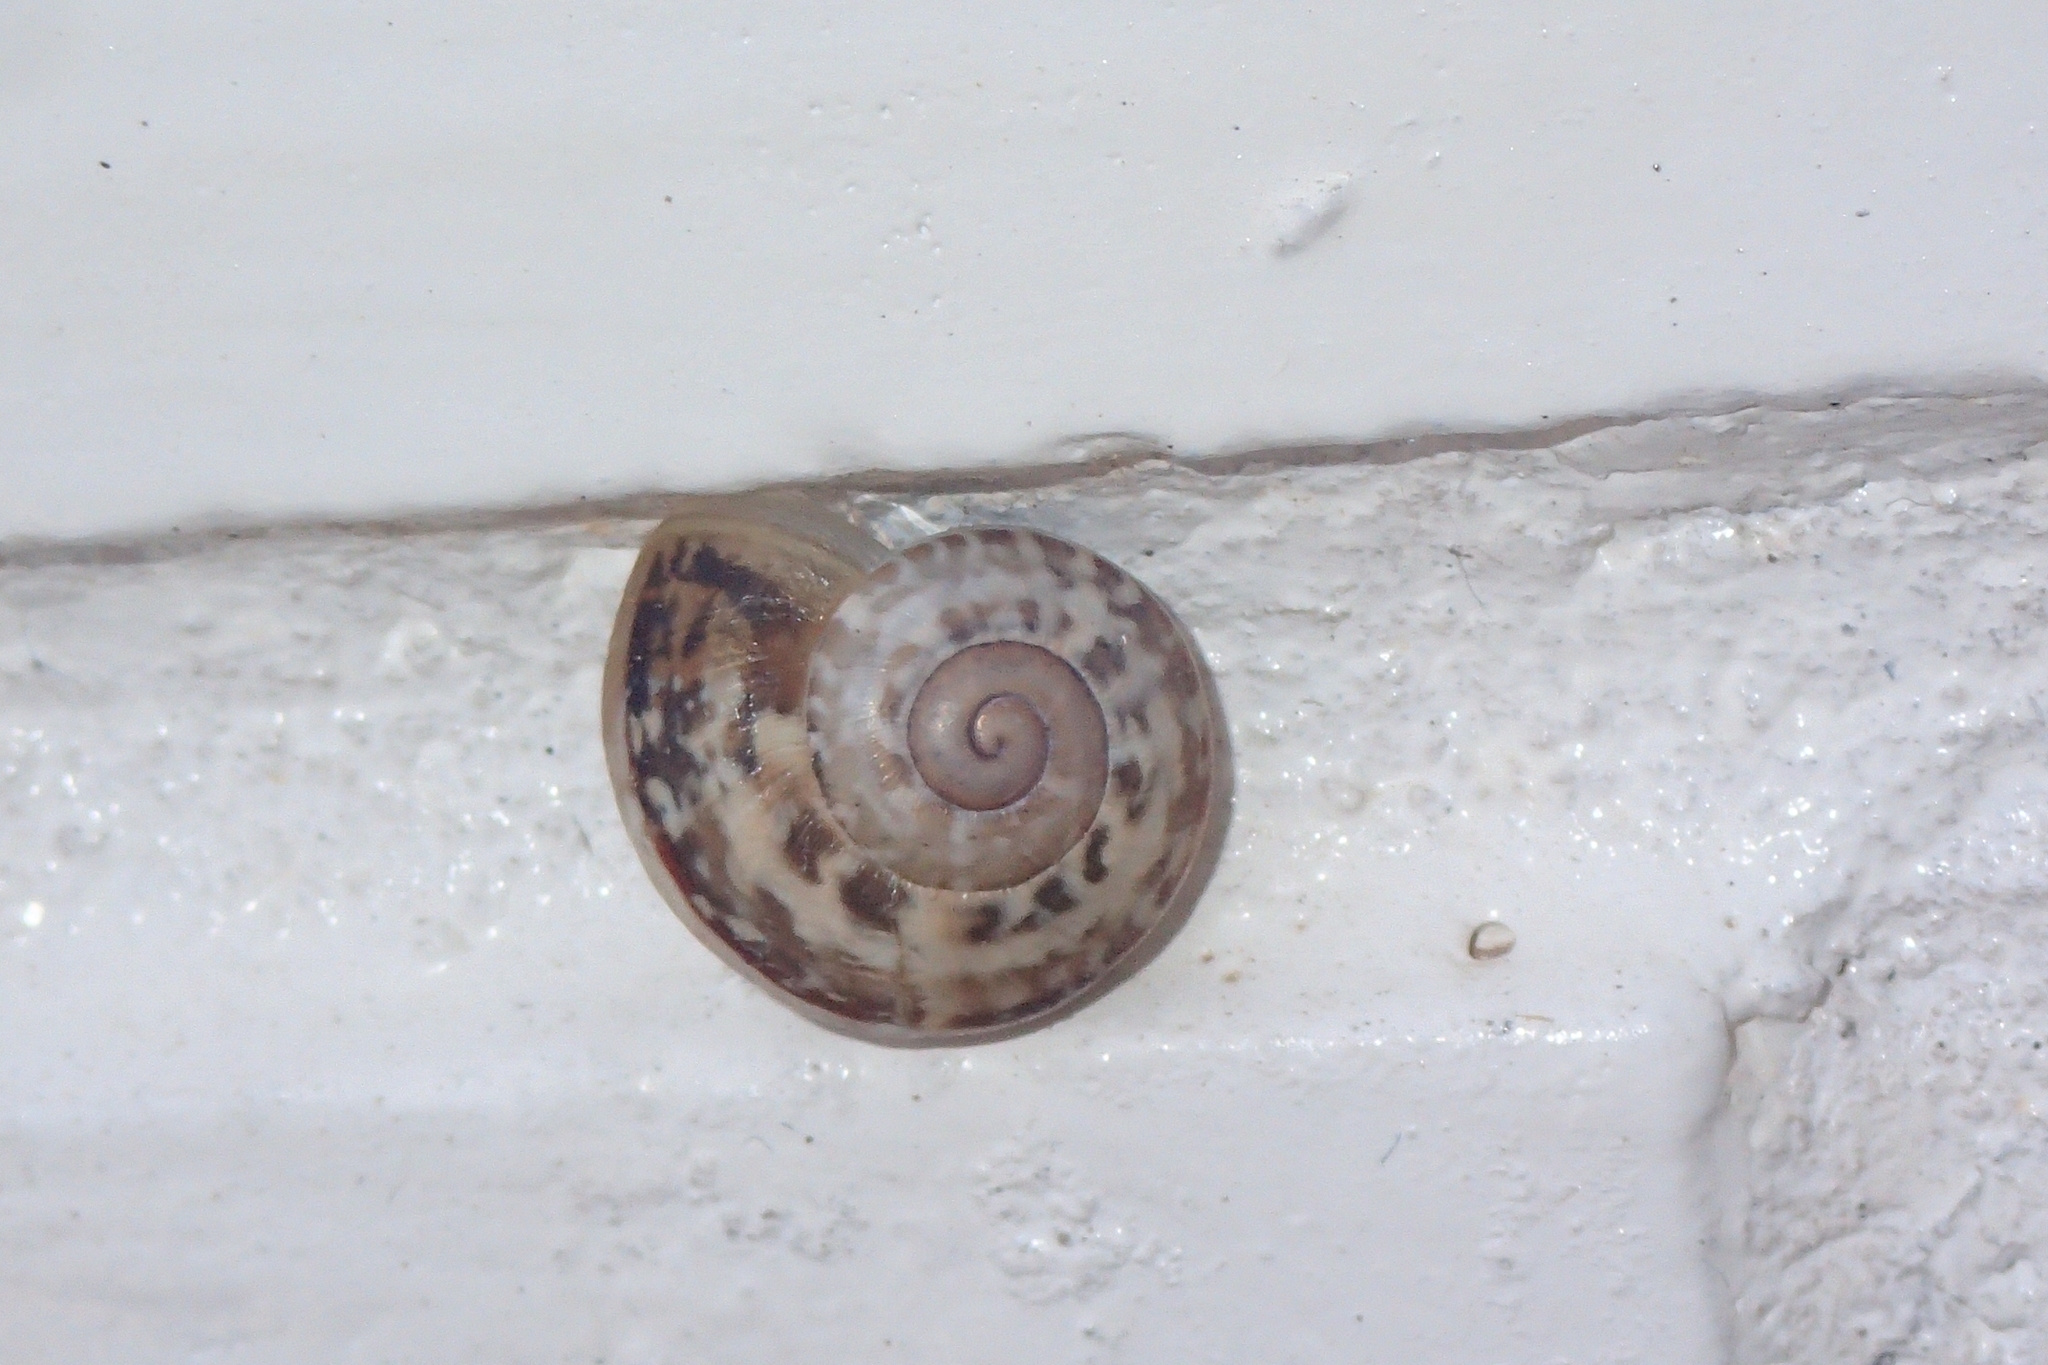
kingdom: Animalia
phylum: Mollusca
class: Gastropoda
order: Stylommatophora
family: Helicidae
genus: Eobania
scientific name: Eobania vermiculata
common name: Chocolateband snail
